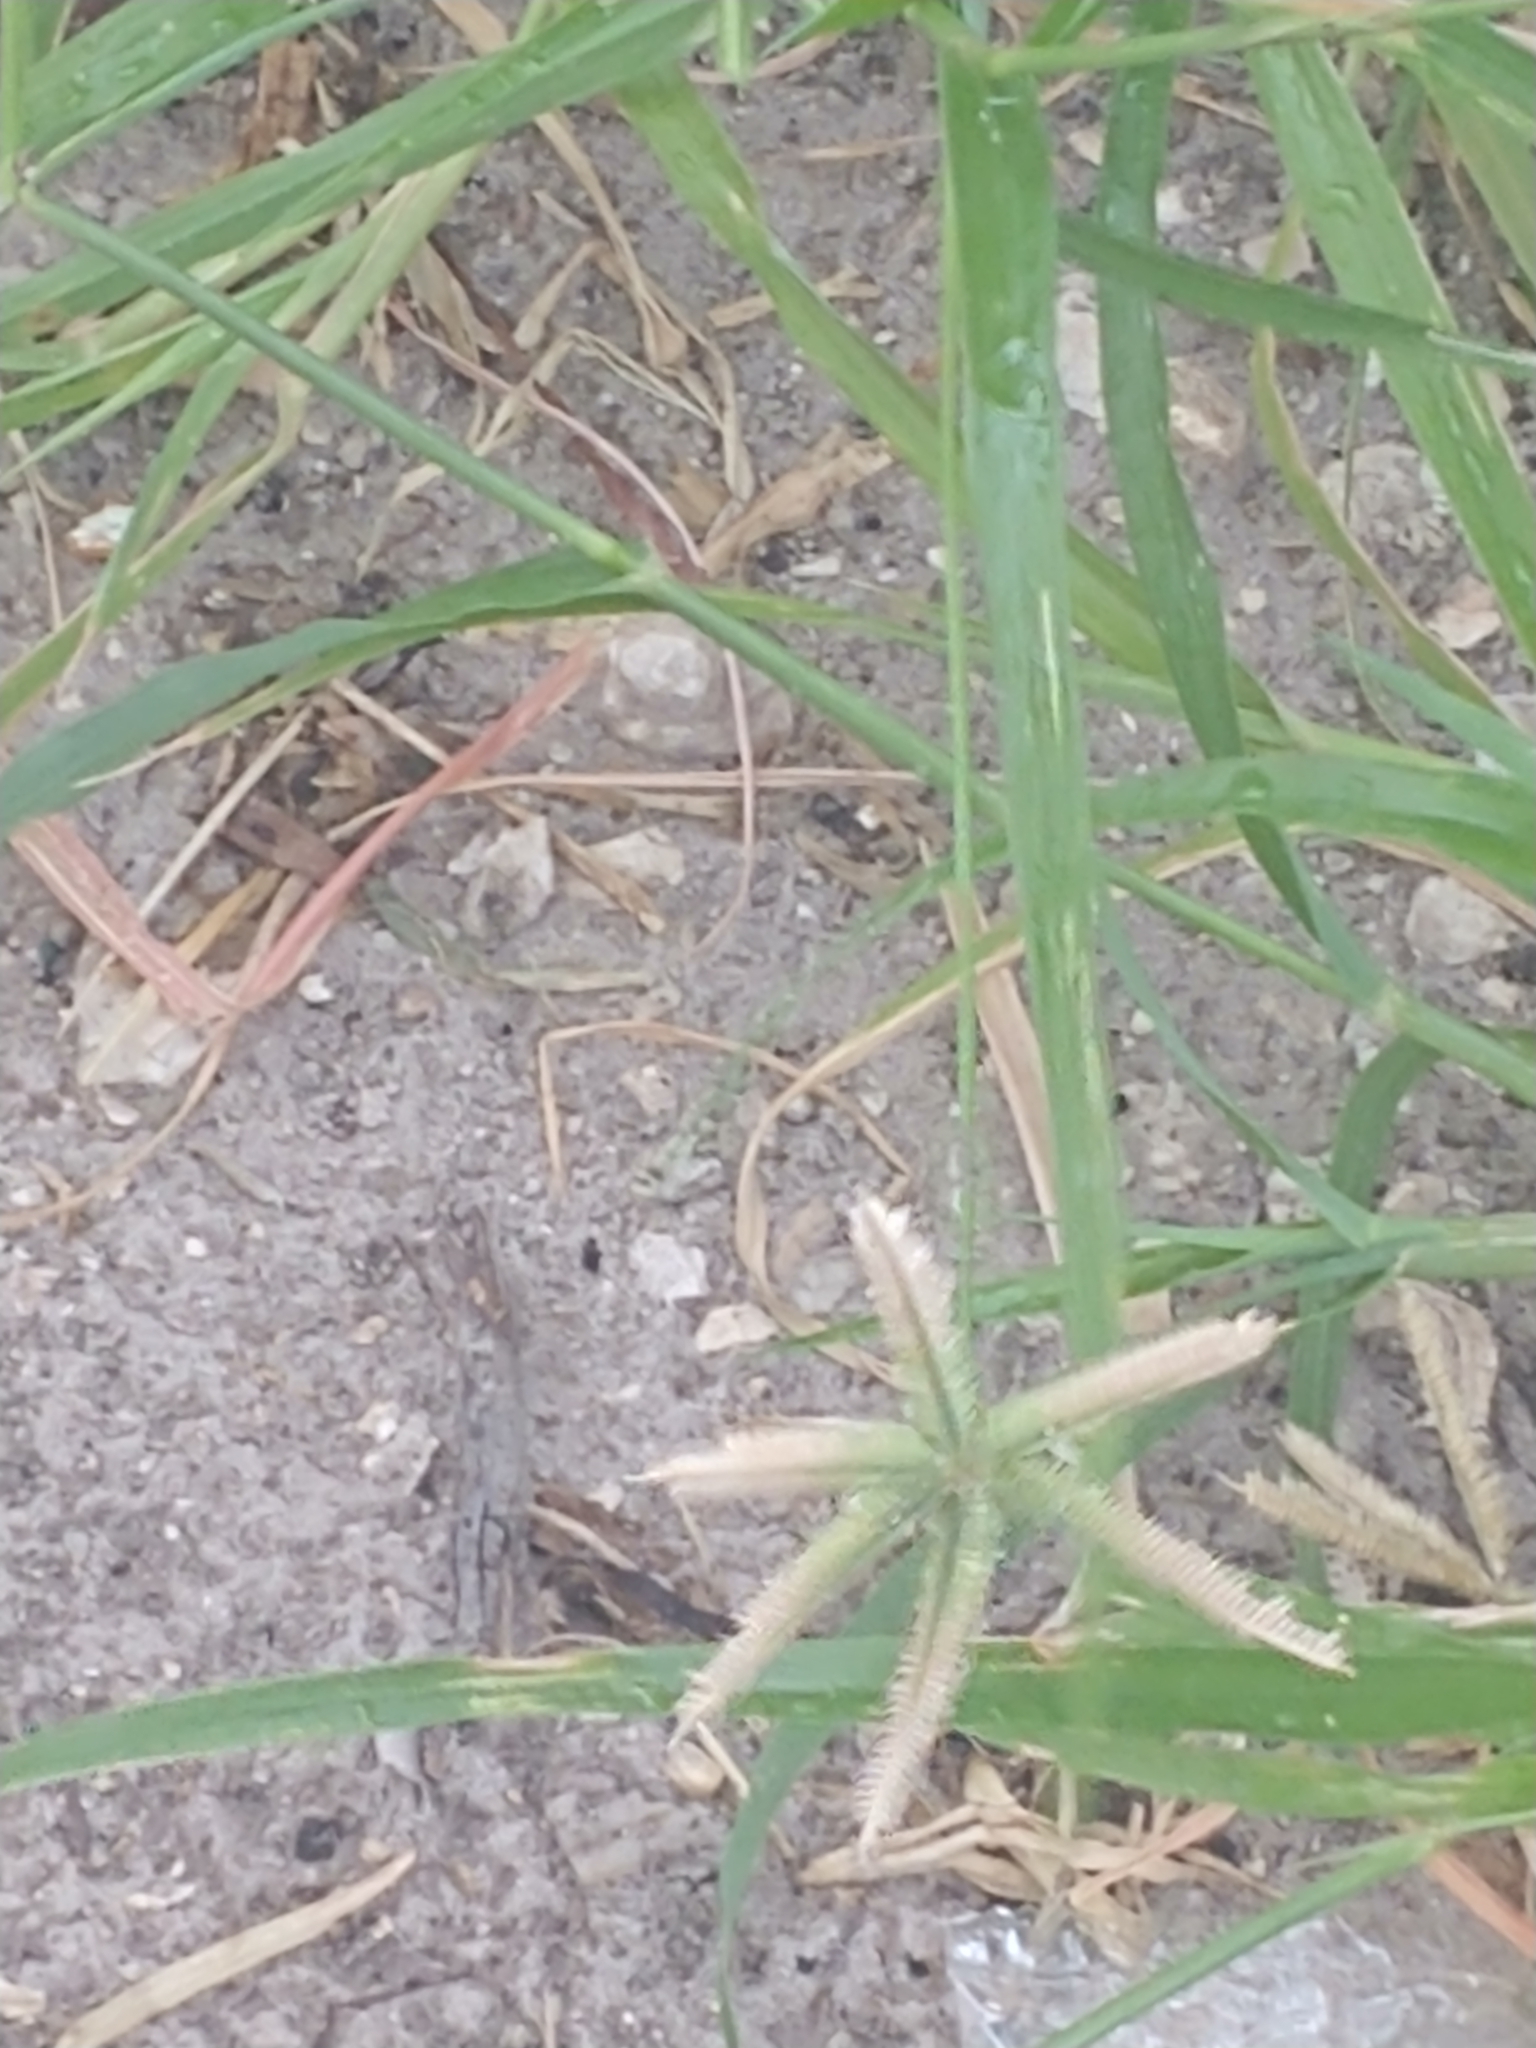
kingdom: Plantae
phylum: Tracheophyta
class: Liliopsida
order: Poales
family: Poaceae
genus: Dactyloctenium
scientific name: Dactyloctenium aegyptium
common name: Egyptian grass
